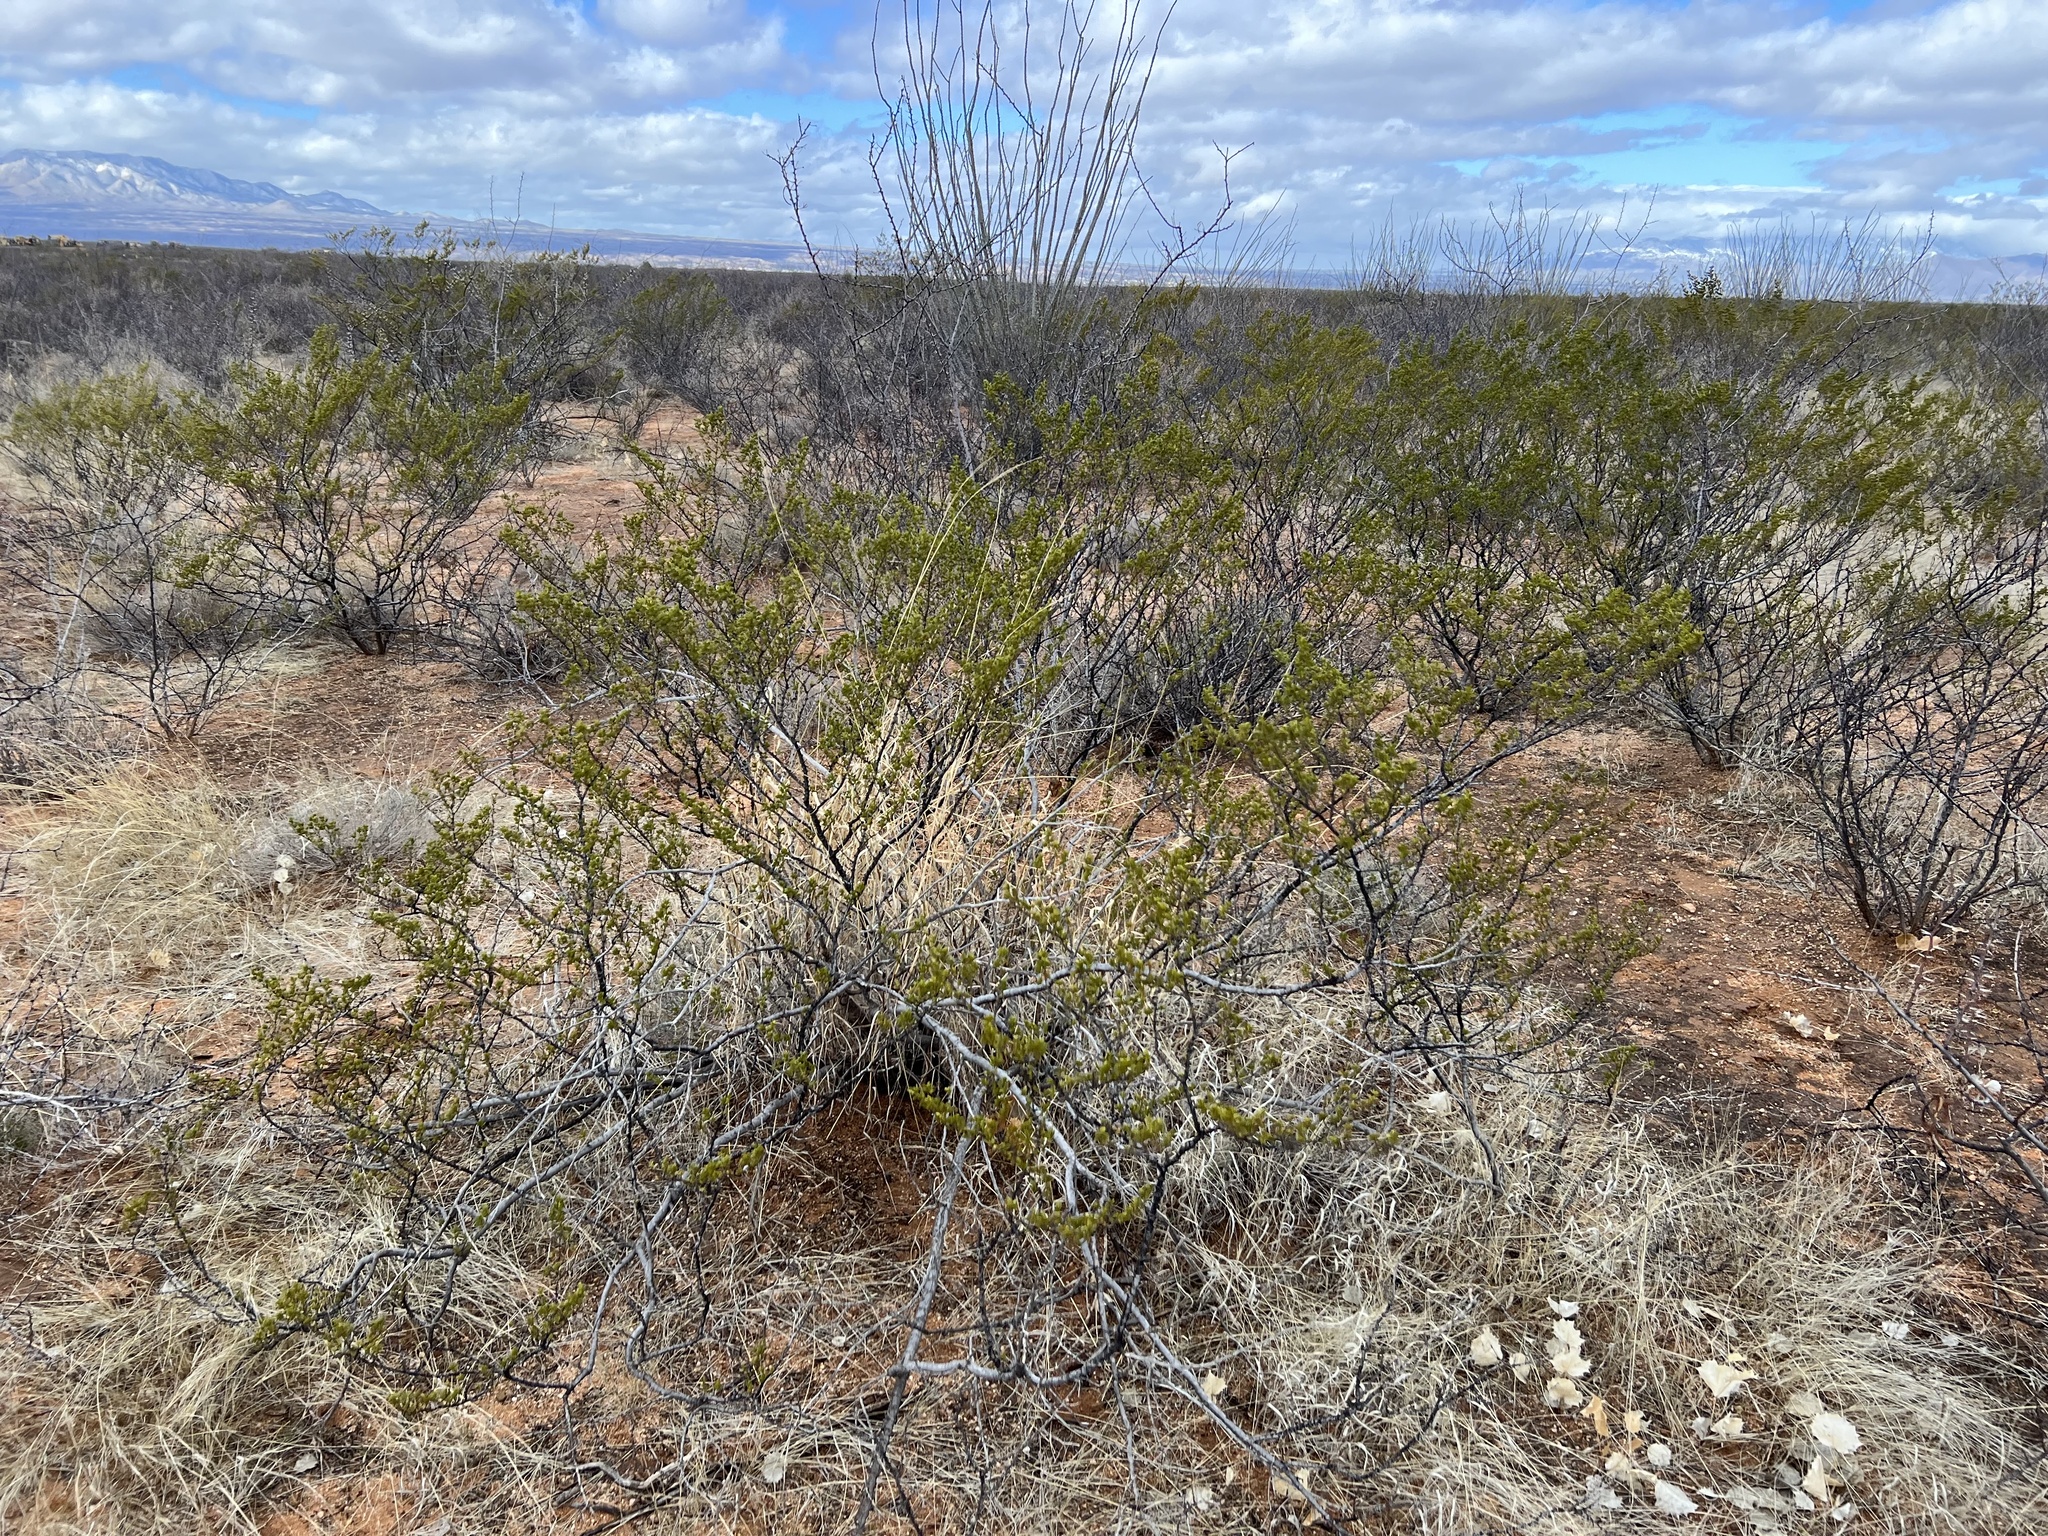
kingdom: Plantae
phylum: Tracheophyta
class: Magnoliopsida
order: Zygophyllales
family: Zygophyllaceae
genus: Larrea
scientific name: Larrea tridentata
